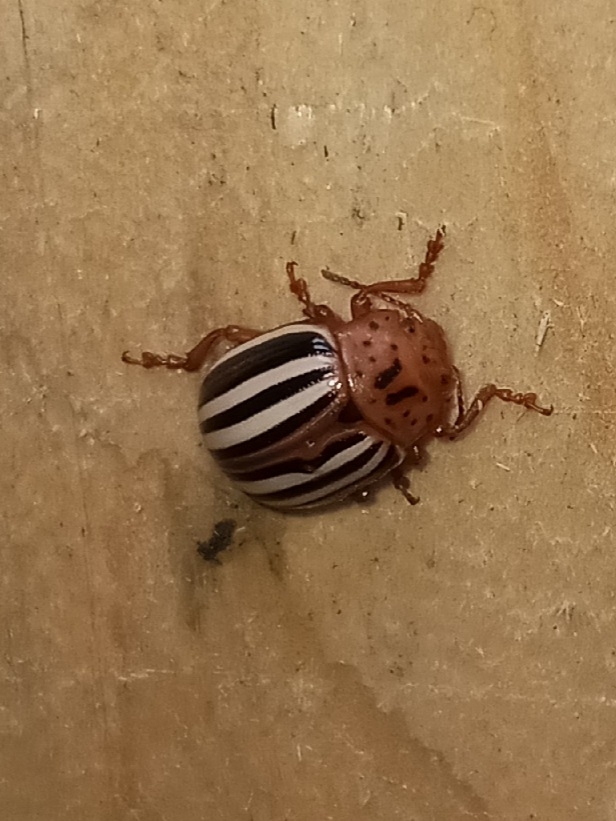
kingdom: Animalia
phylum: Arthropoda
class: Insecta
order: Coleoptera
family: Chrysomelidae
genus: Leptinotarsa
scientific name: Leptinotarsa juncta
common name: False potato beetle
